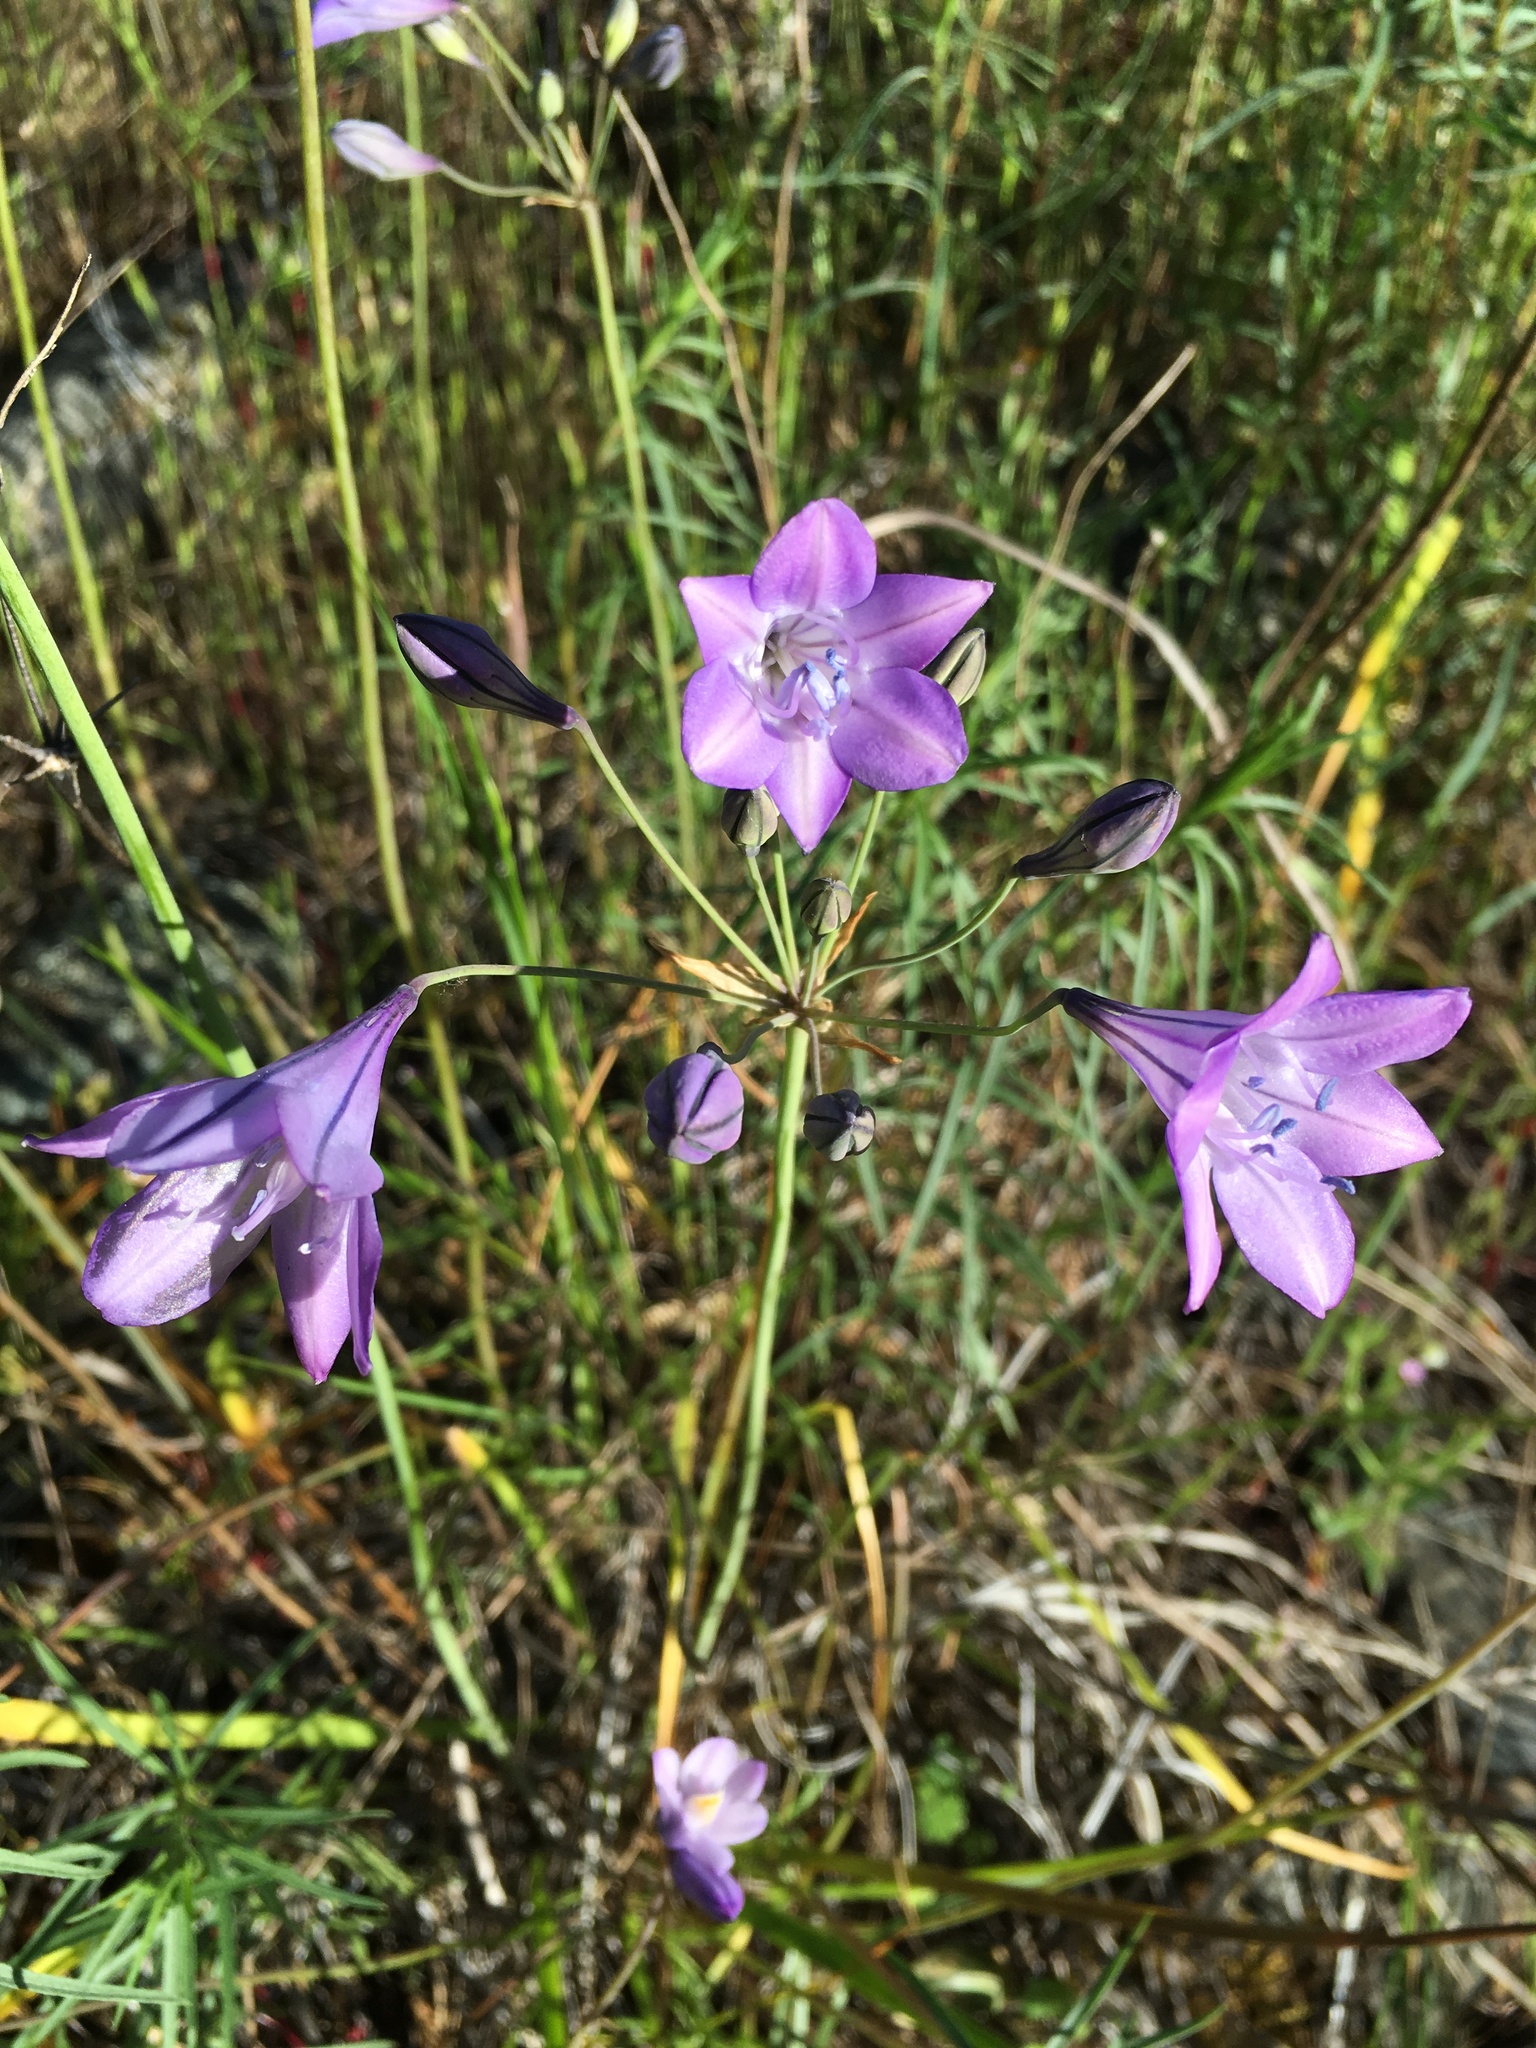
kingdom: Plantae
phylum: Tracheophyta
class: Liliopsida
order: Asparagales
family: Asparagaceae
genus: Triteleia
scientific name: Triteleia laxa
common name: Triplet-lily
